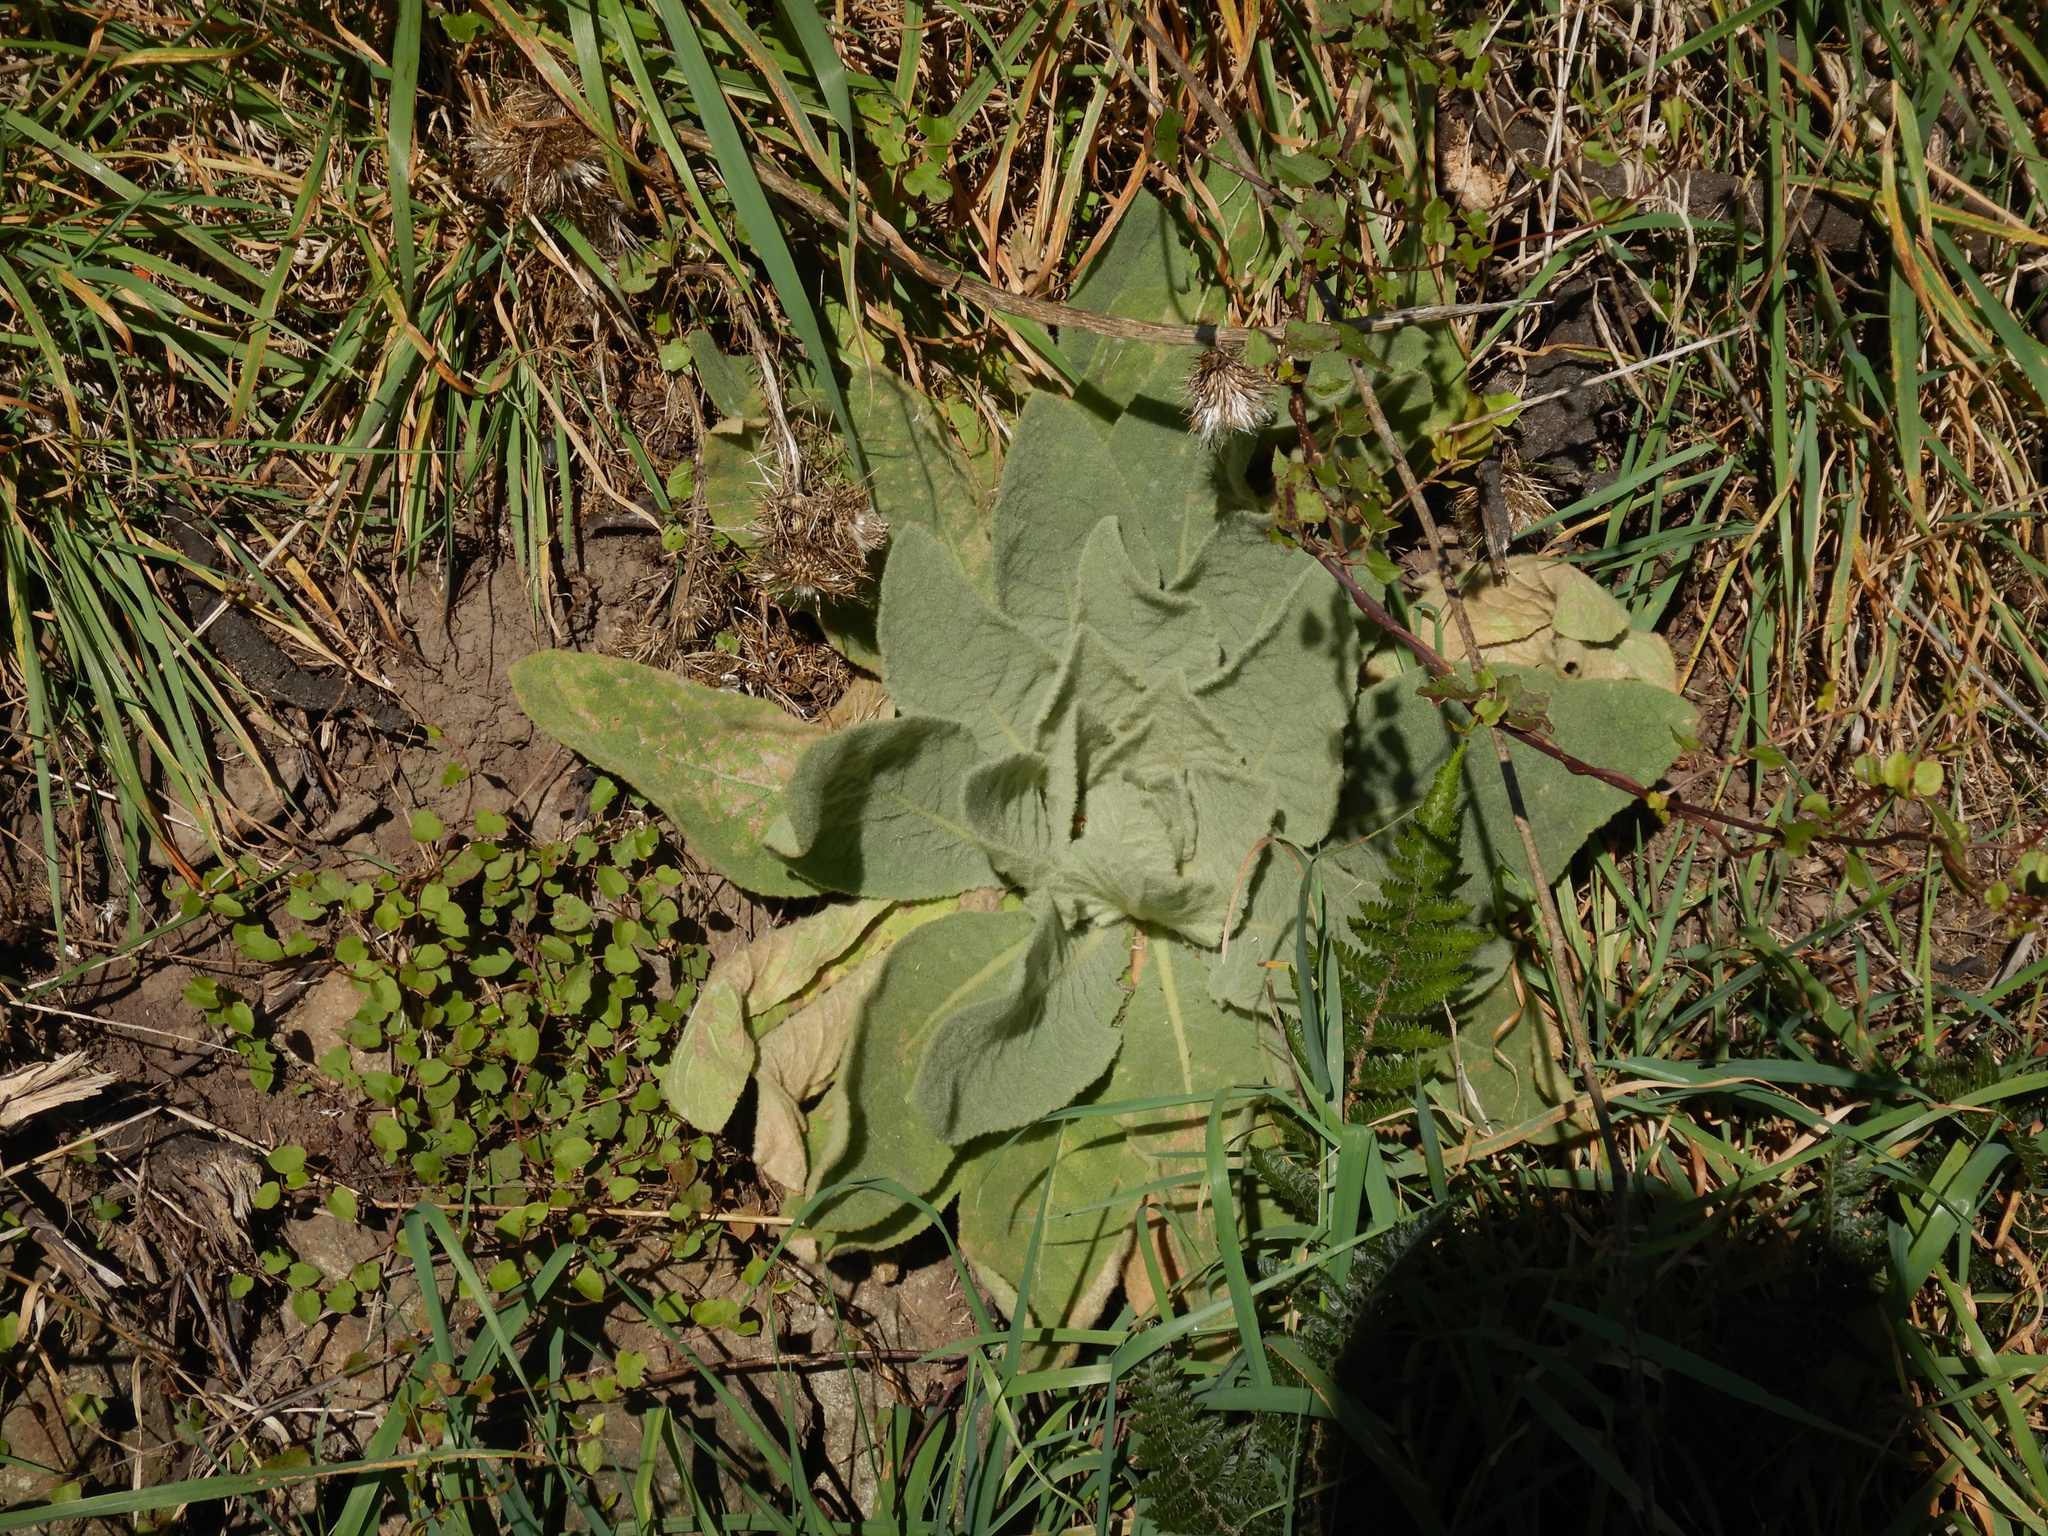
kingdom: Plantae
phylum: Tracheophyta
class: Magnoliopsida
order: Lamiales
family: Scrophulariaceae
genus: Verbascum
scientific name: Verbascum thapsus
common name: Common mullein
